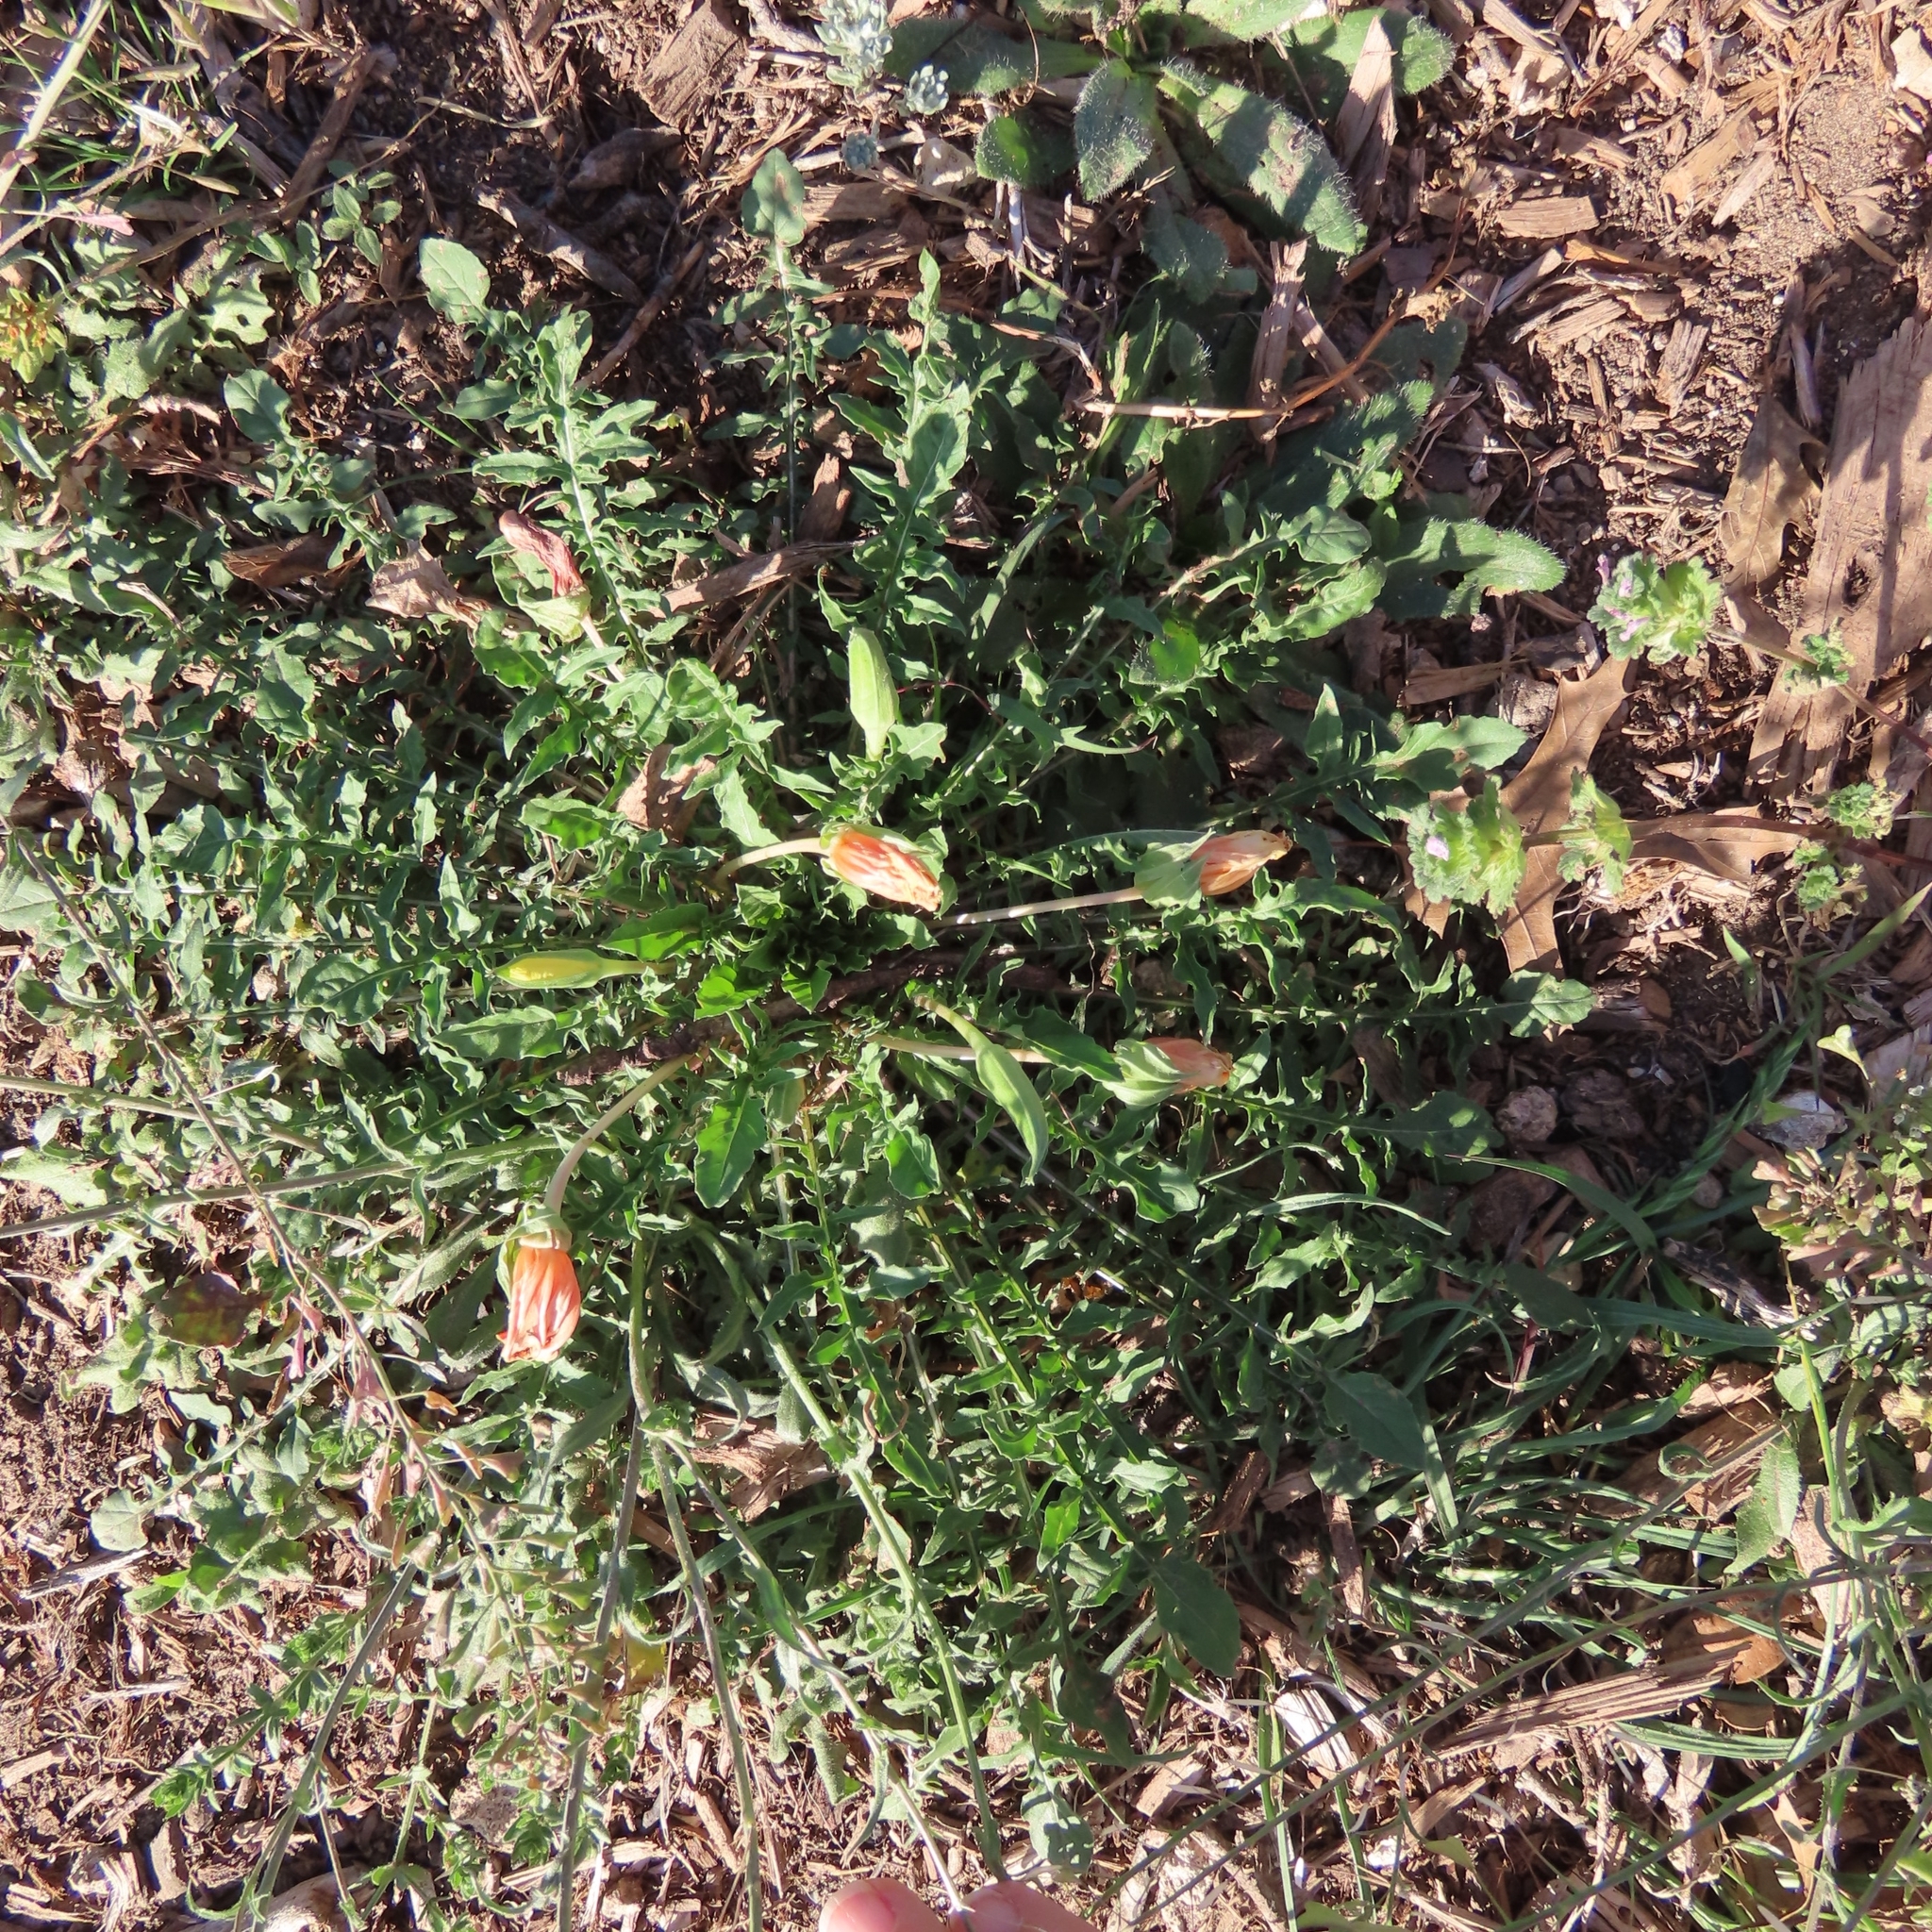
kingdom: Plantae
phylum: Tracheophyta
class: Magnoliopsida
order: Myrtales
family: Onagraceae
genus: Oenothera
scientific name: Oenothera triloba
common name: Sessile evening-primrose
